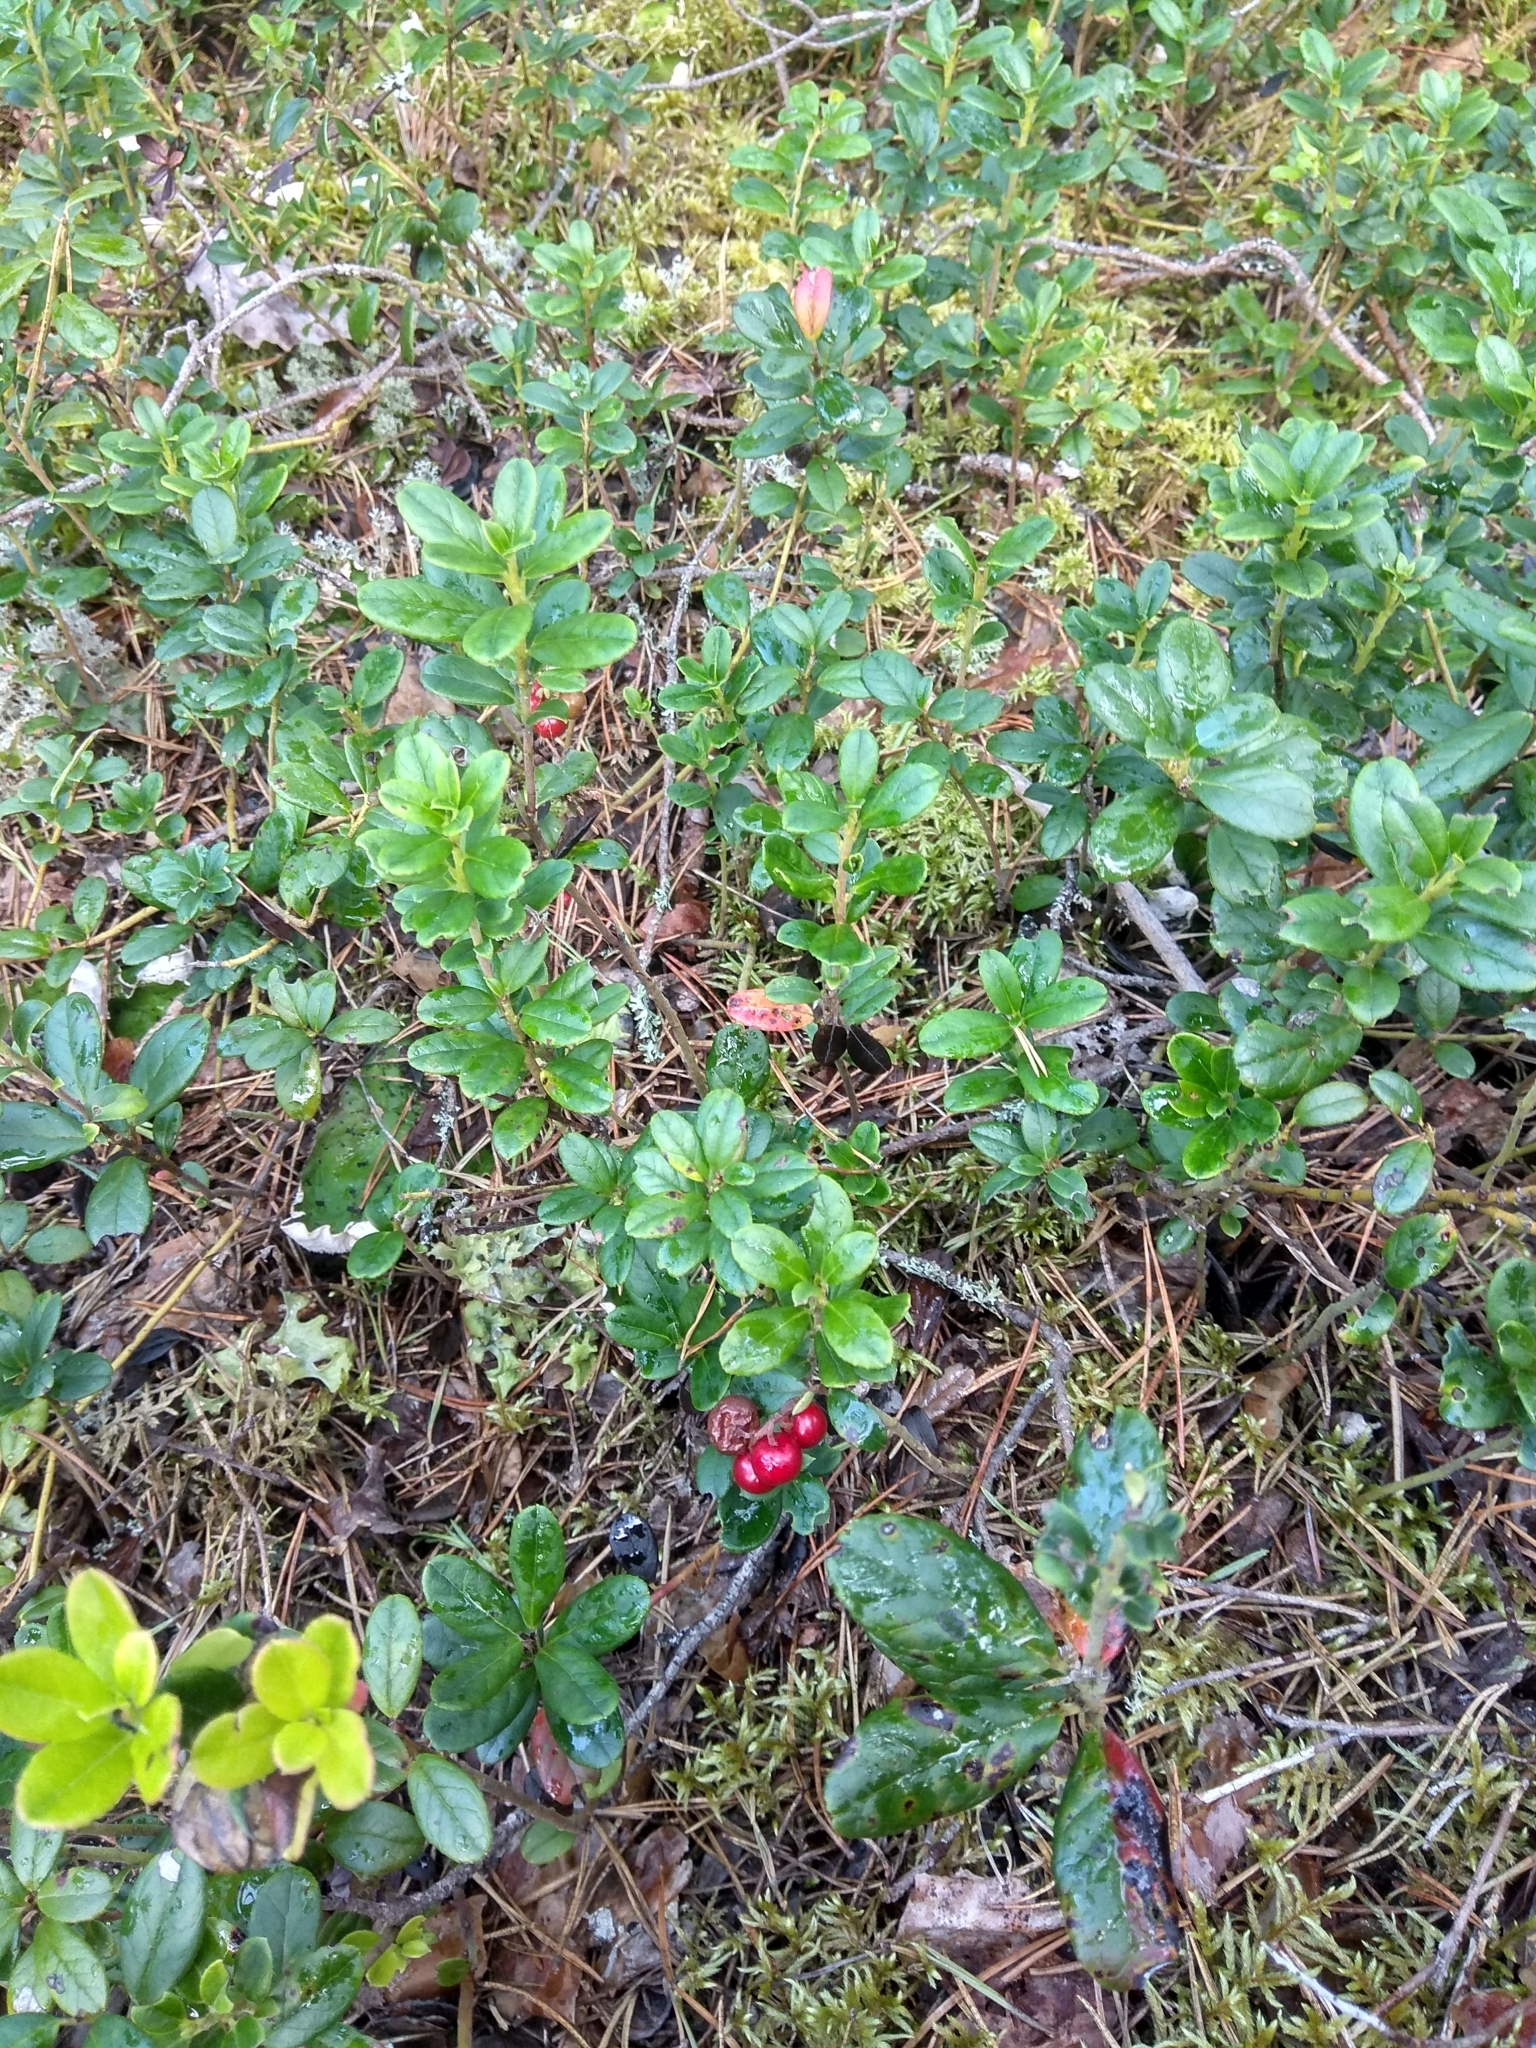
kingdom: Plantae
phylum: Tracheophyta
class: Magnoliopsida
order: Ericales
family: Ericaceae
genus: Vaccinium
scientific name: Vaccinium vitis-idaea
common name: Cowberry
